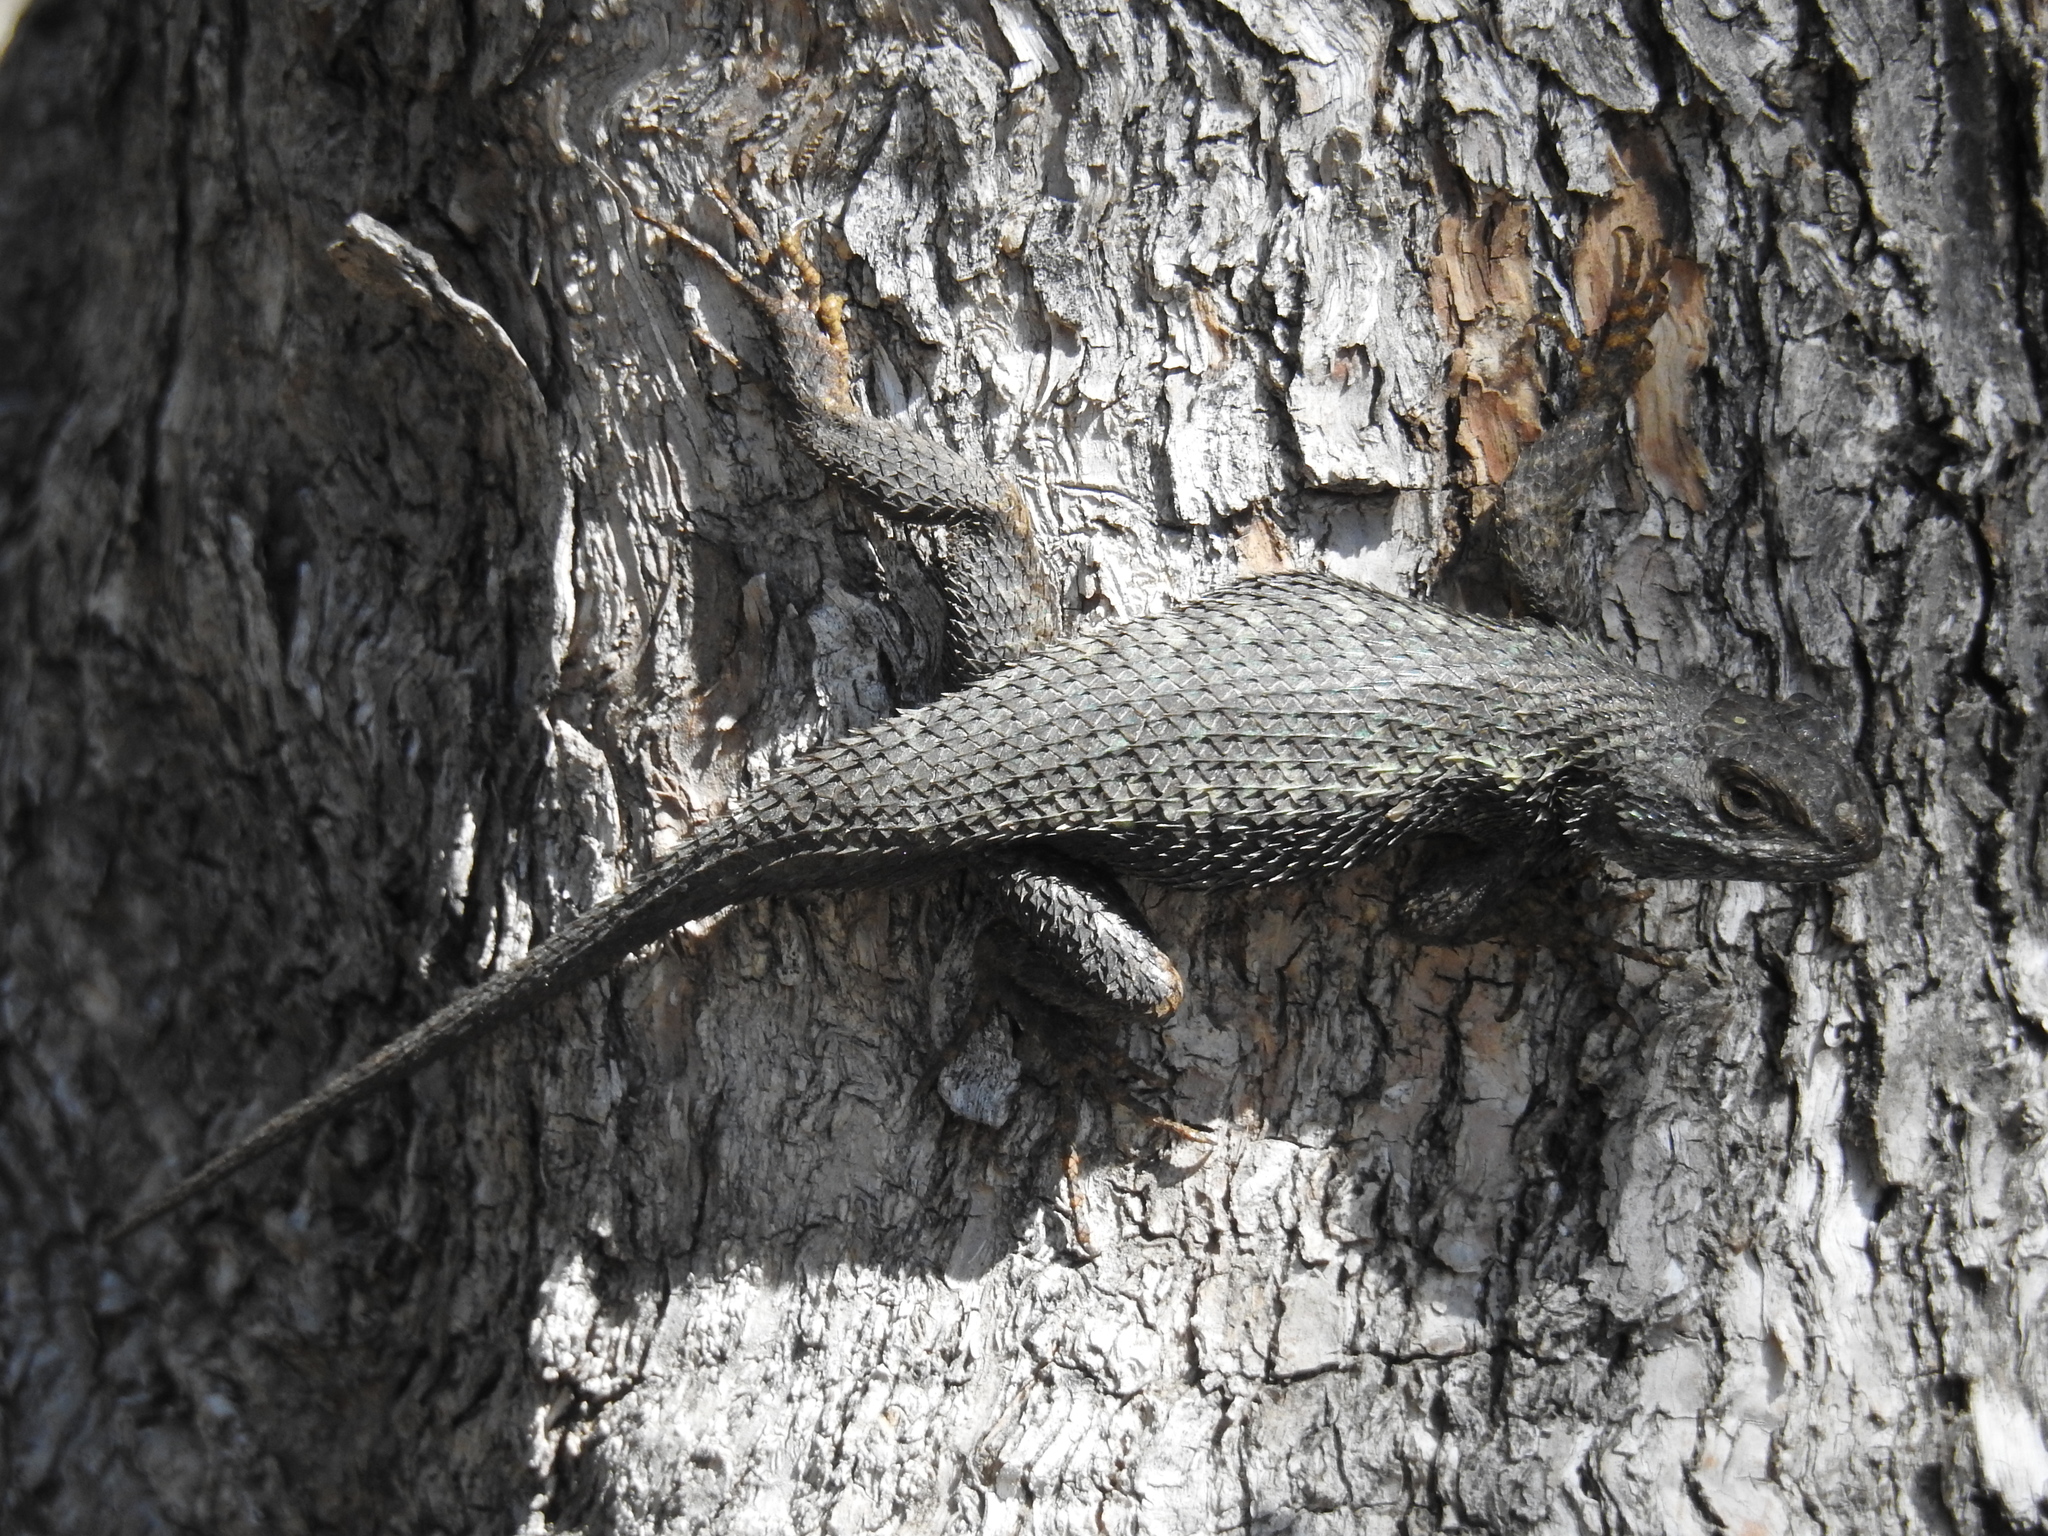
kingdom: Animalia
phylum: Chordata
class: Squamata
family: Phrynosomatidae
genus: Sceloporus
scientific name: Sceloporus occidentalis
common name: Western fence lizard
